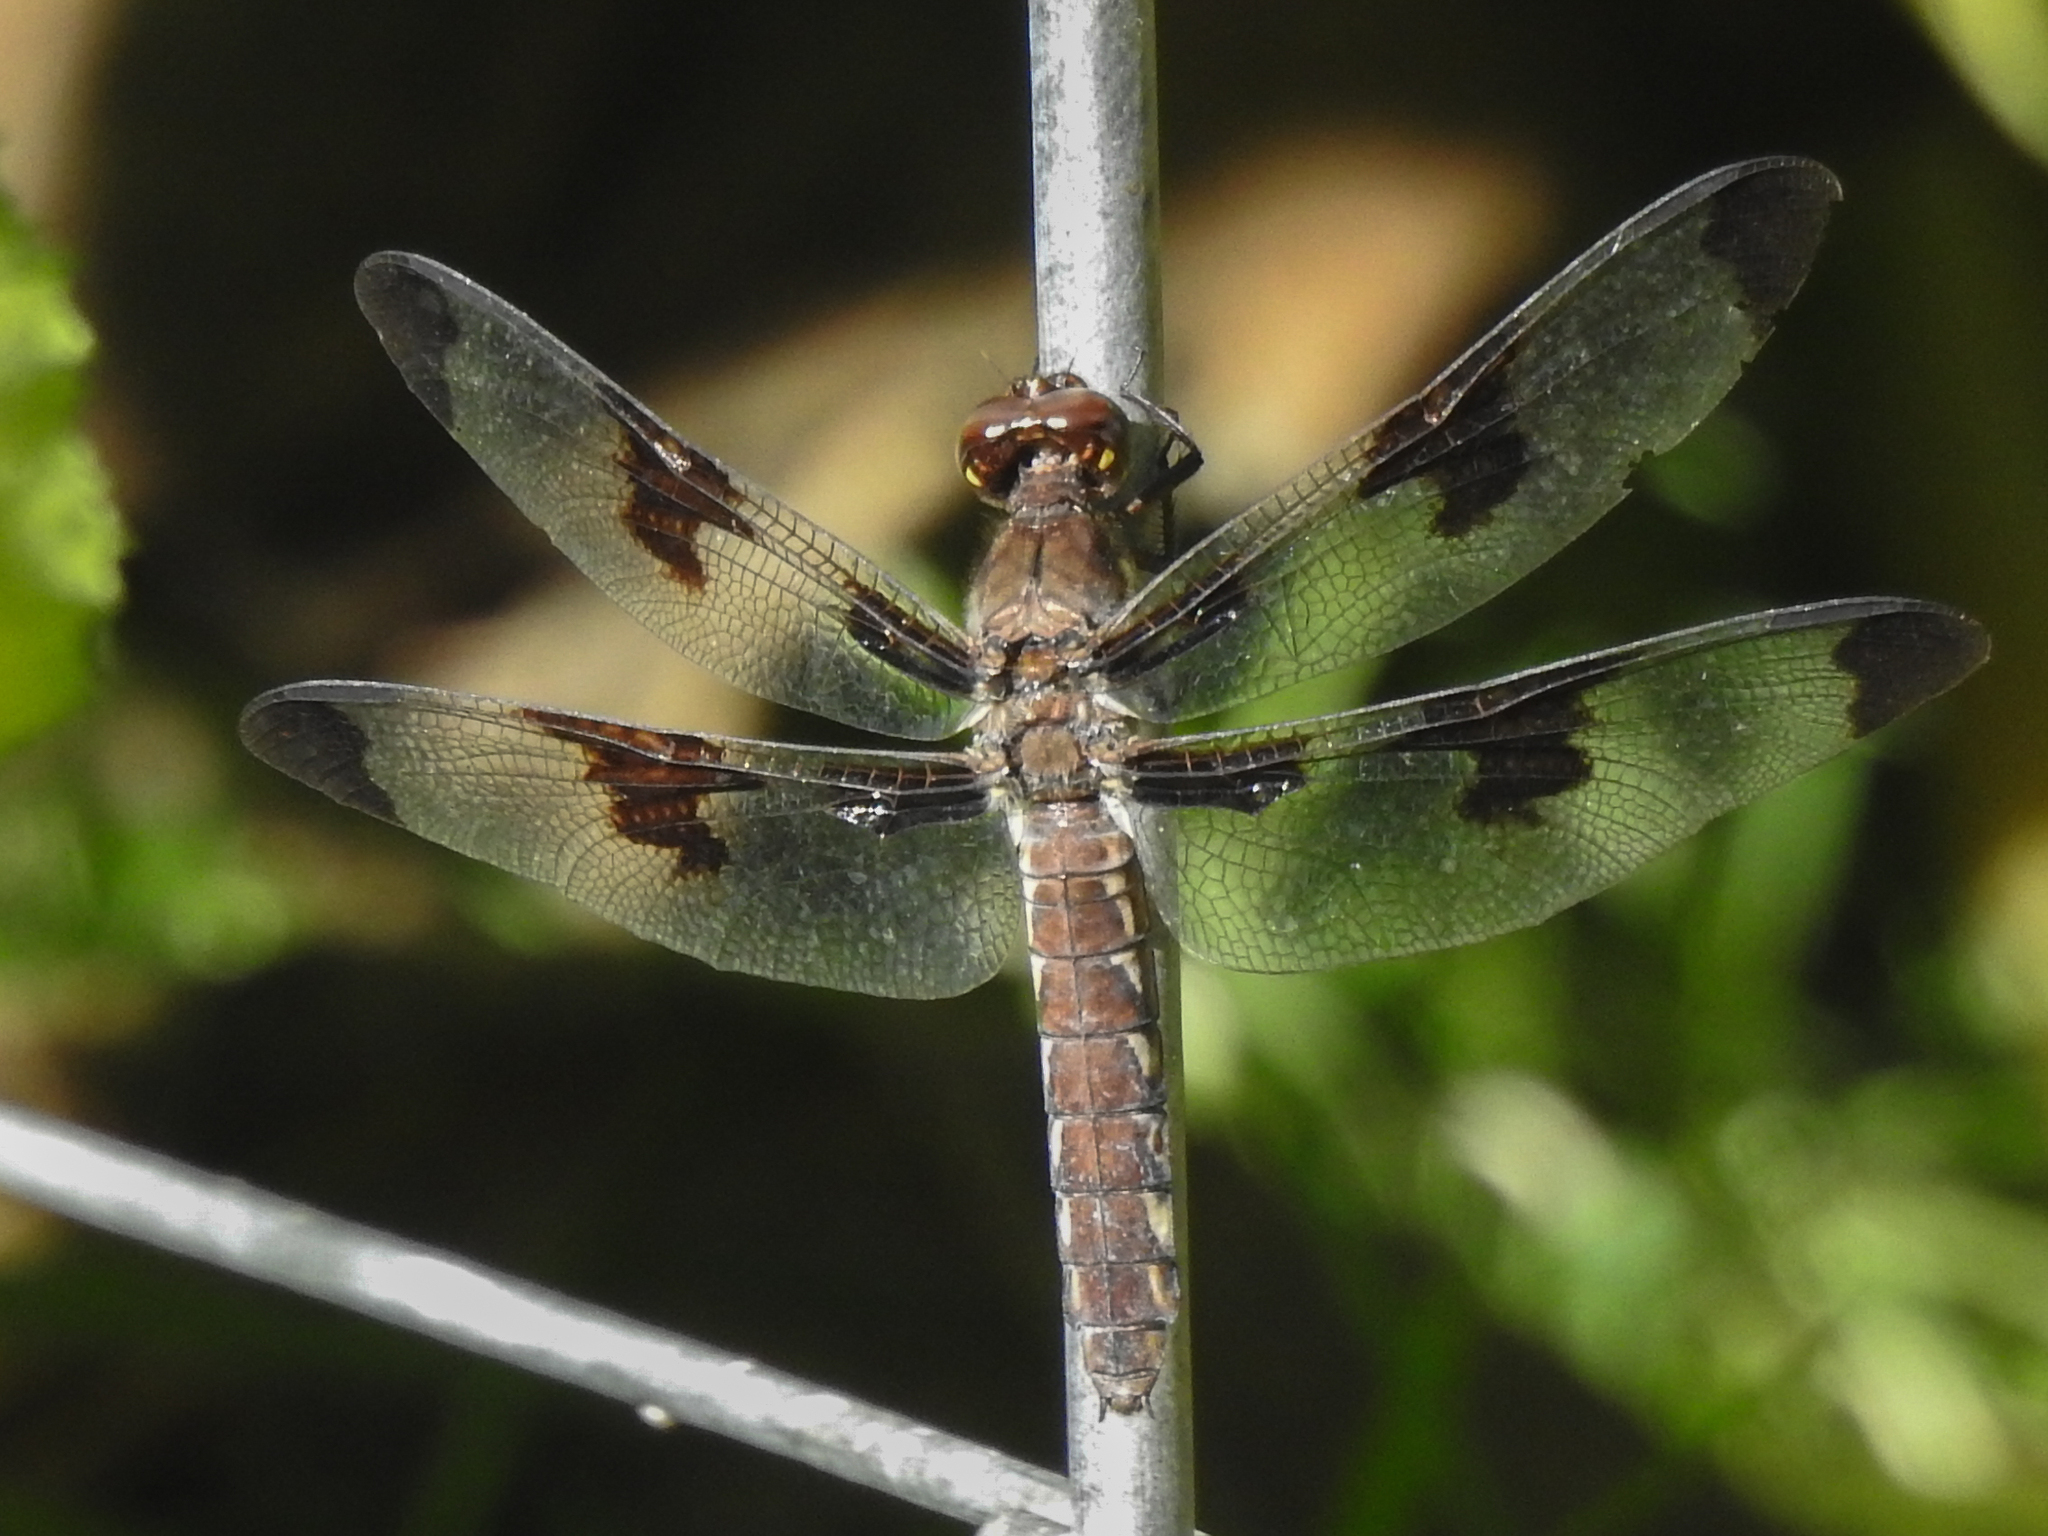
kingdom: Animalia
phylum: Arthropoda
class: Insecta
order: Odonata
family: Libellulidae
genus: Plathemis
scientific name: Plathemis lydia
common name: Common whitetail
